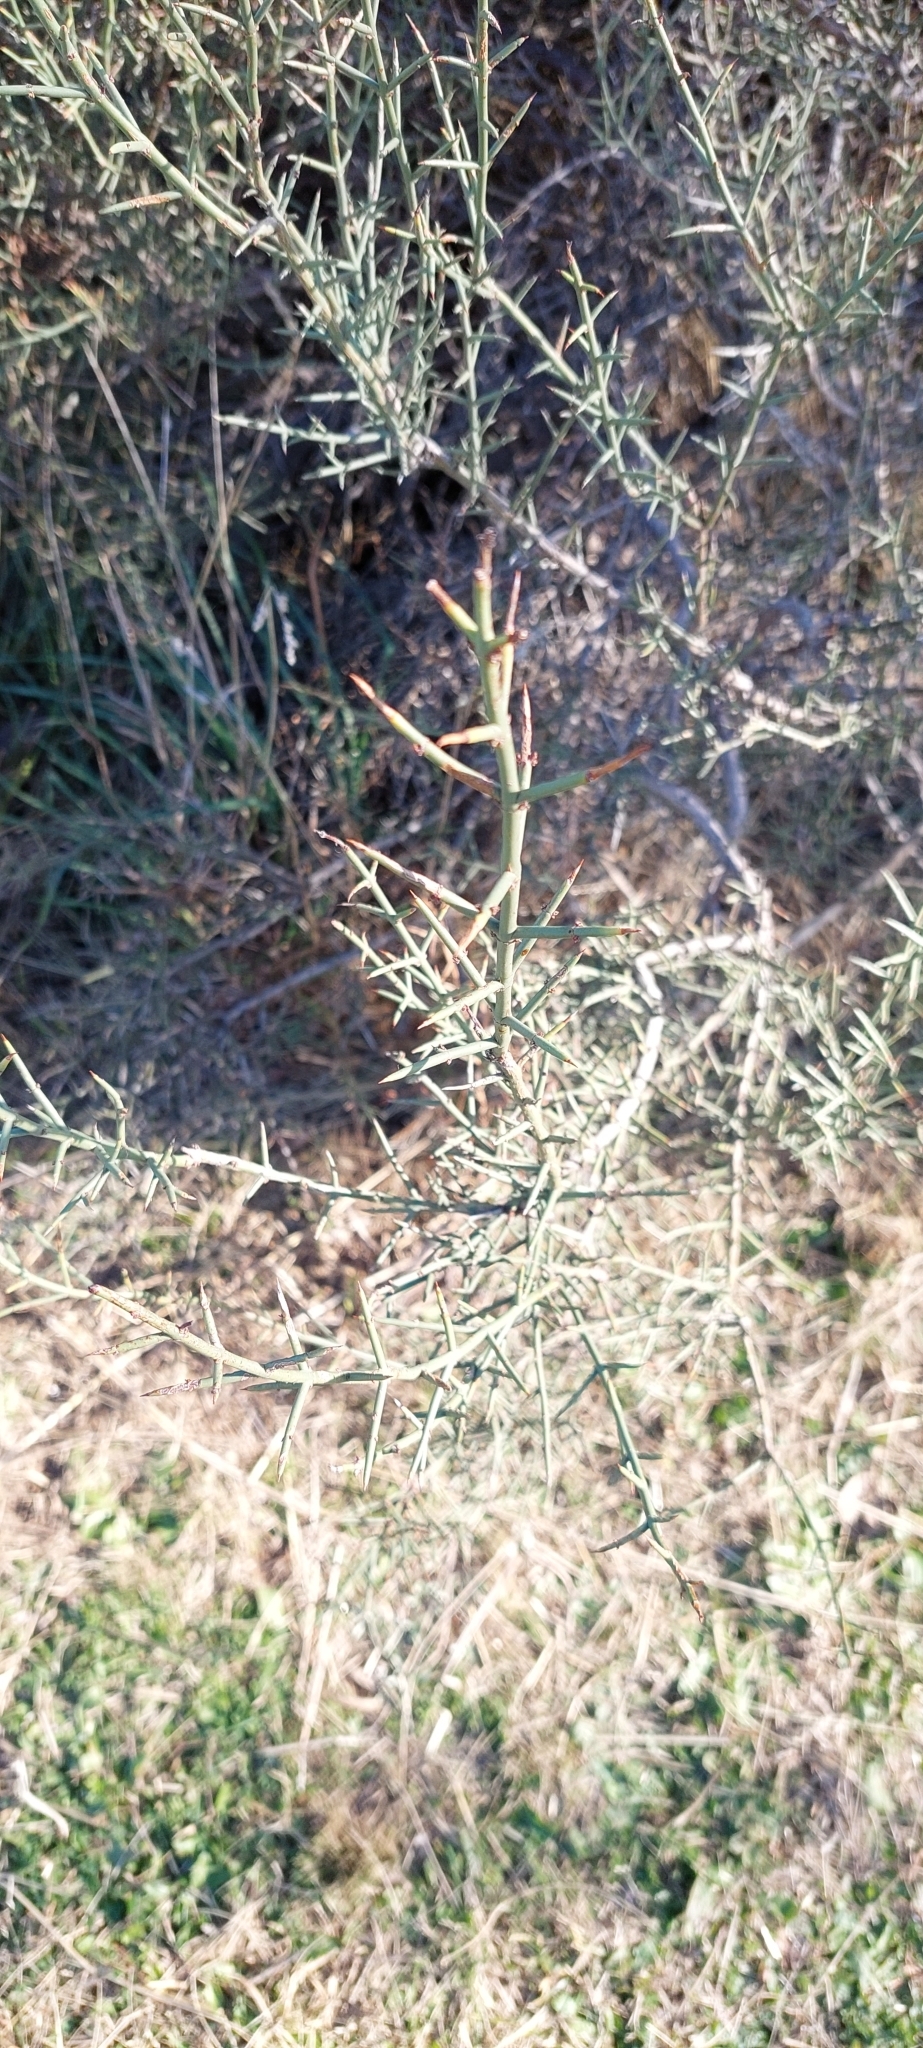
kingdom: Plantae
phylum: Tracheophyta
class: Magnoliopsida
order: Rosales
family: Rhamnaceae
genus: Colletia
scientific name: Colletia spinosissima
